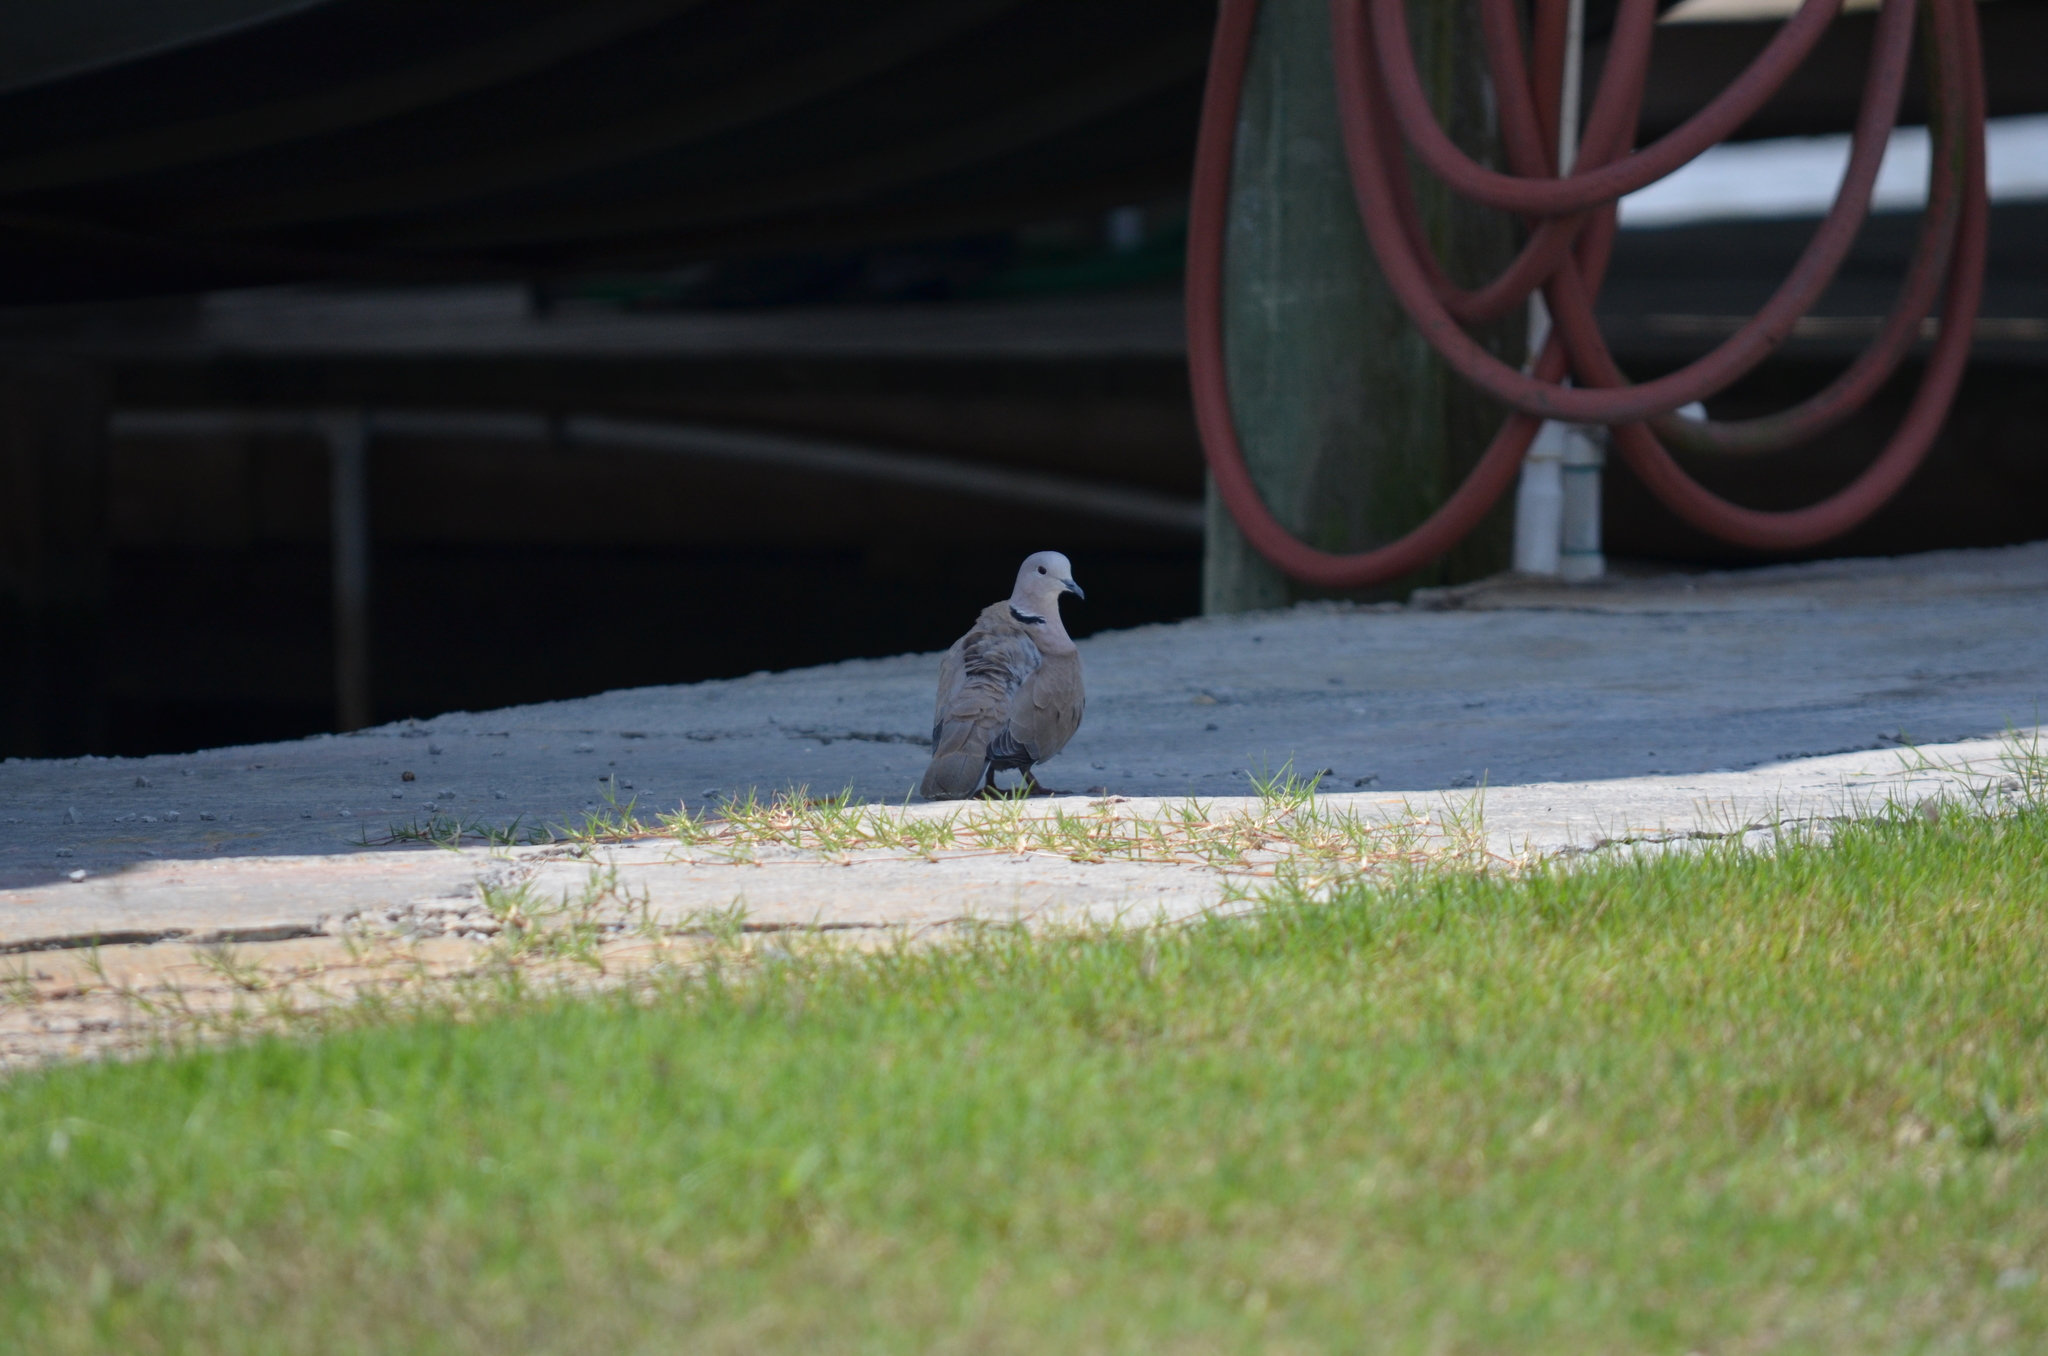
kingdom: Animalia
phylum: Chordata
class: Aves
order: Columbiformes
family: Columbidae
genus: Streptopelia
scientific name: Streptopelia decaocto
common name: Eurasian collared dove
